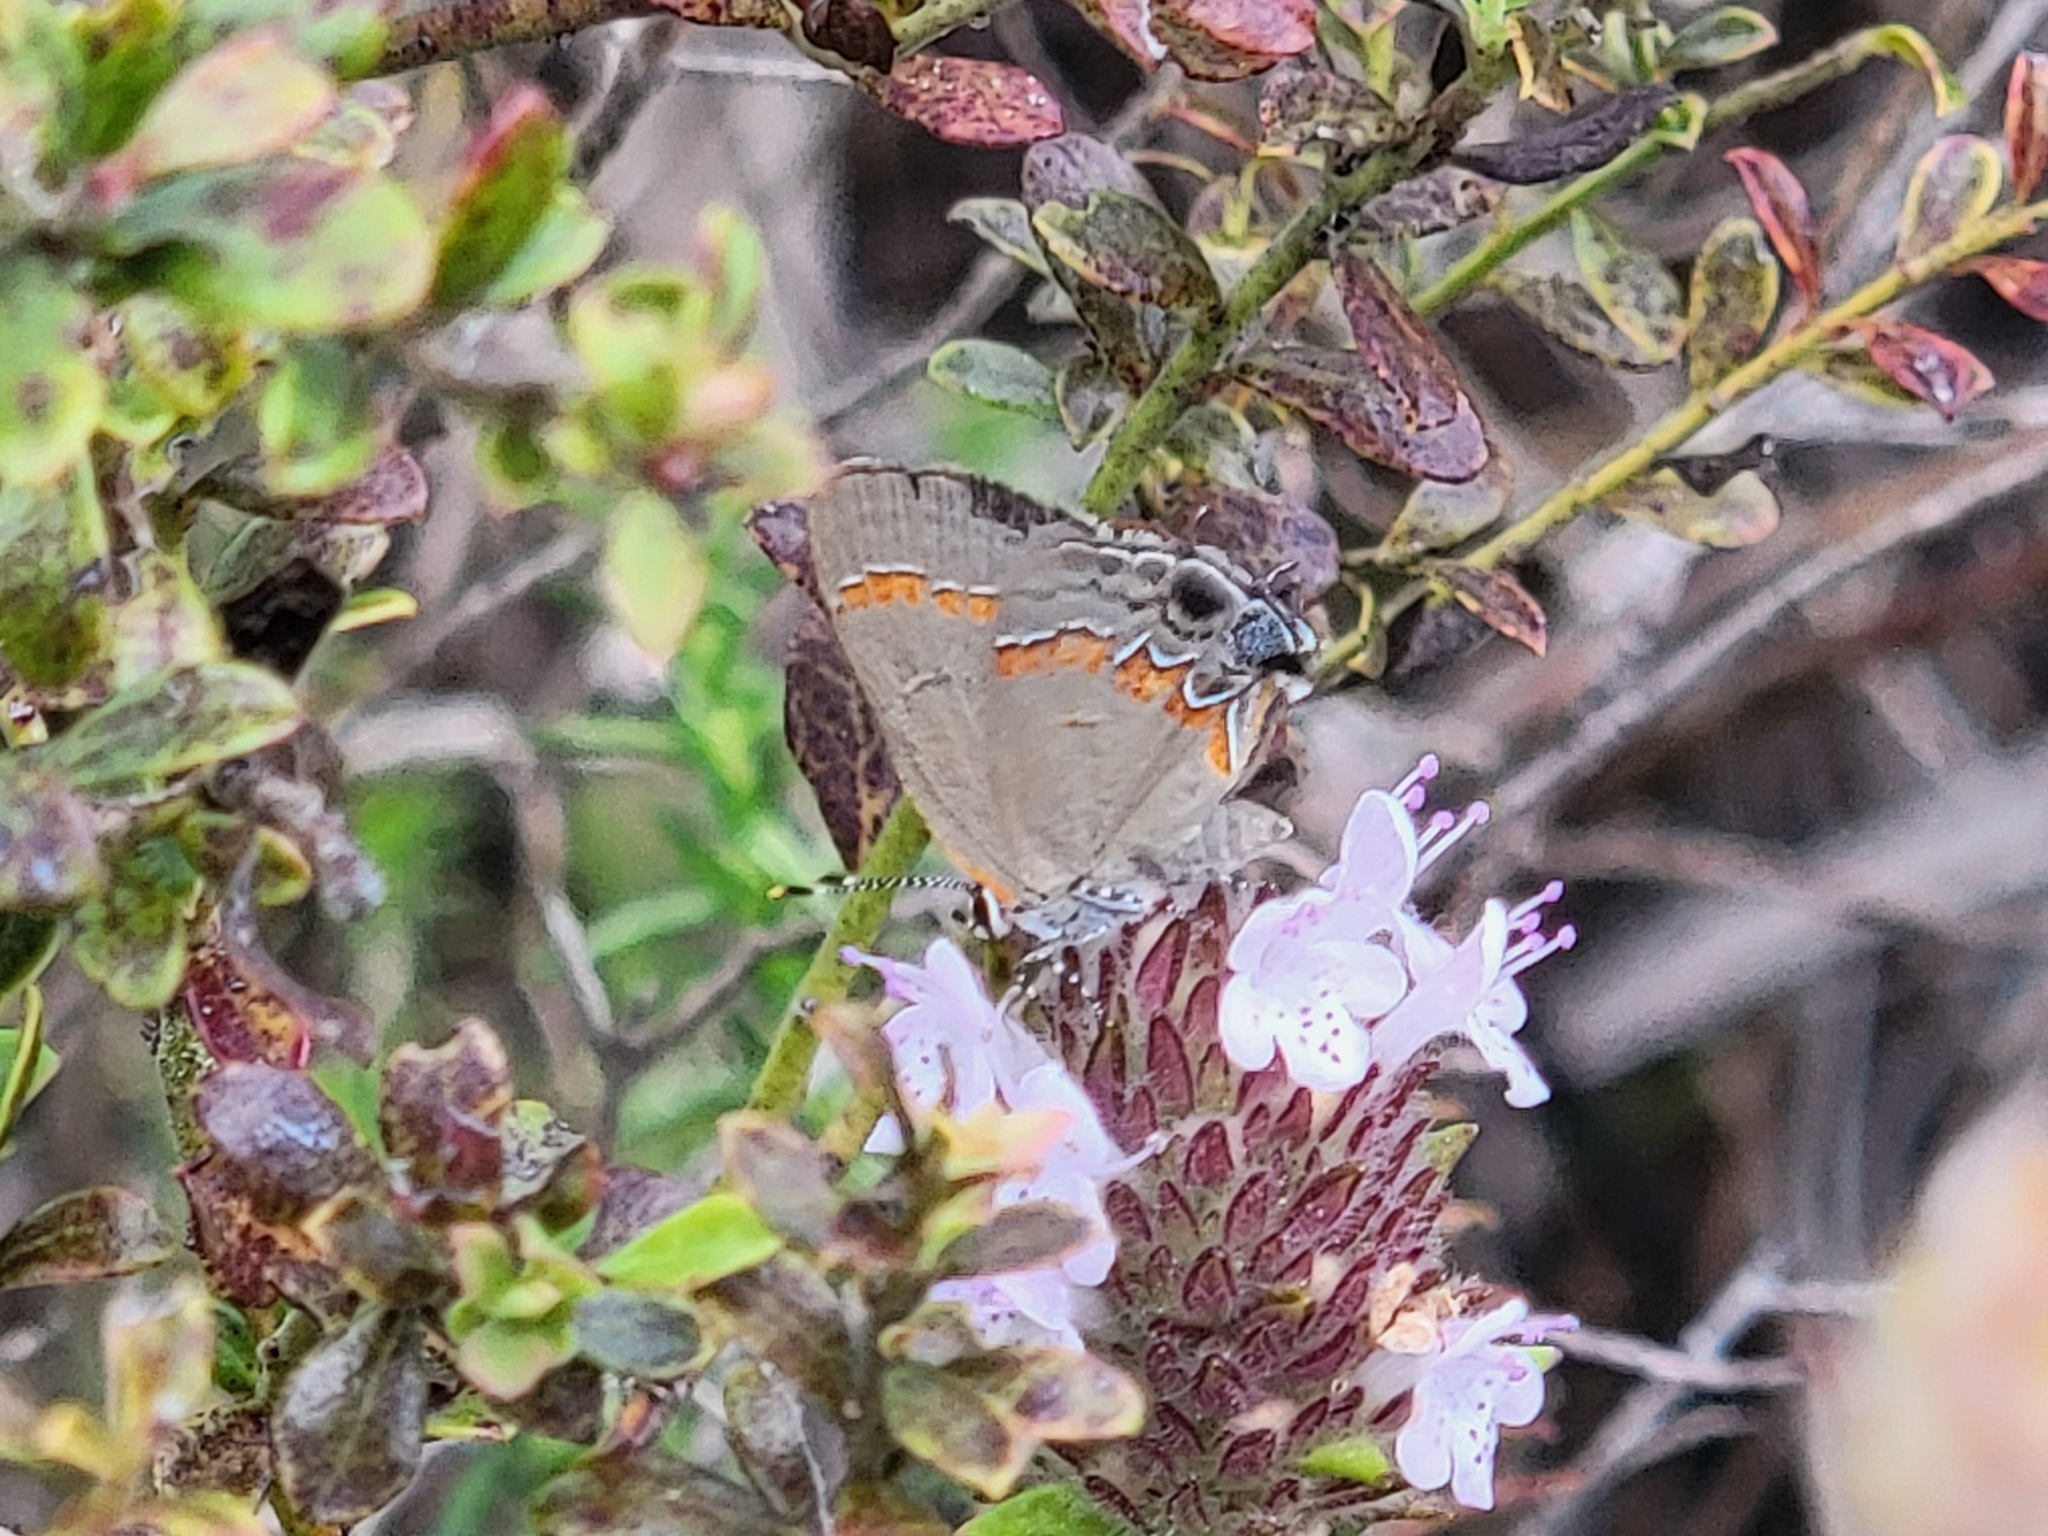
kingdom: Animalia
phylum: Arthropoda
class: Insecta
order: Lepidoptera
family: Lycaenidae
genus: Calycopis
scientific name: Calycopis cecrops
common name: Red-banded hairstreak
